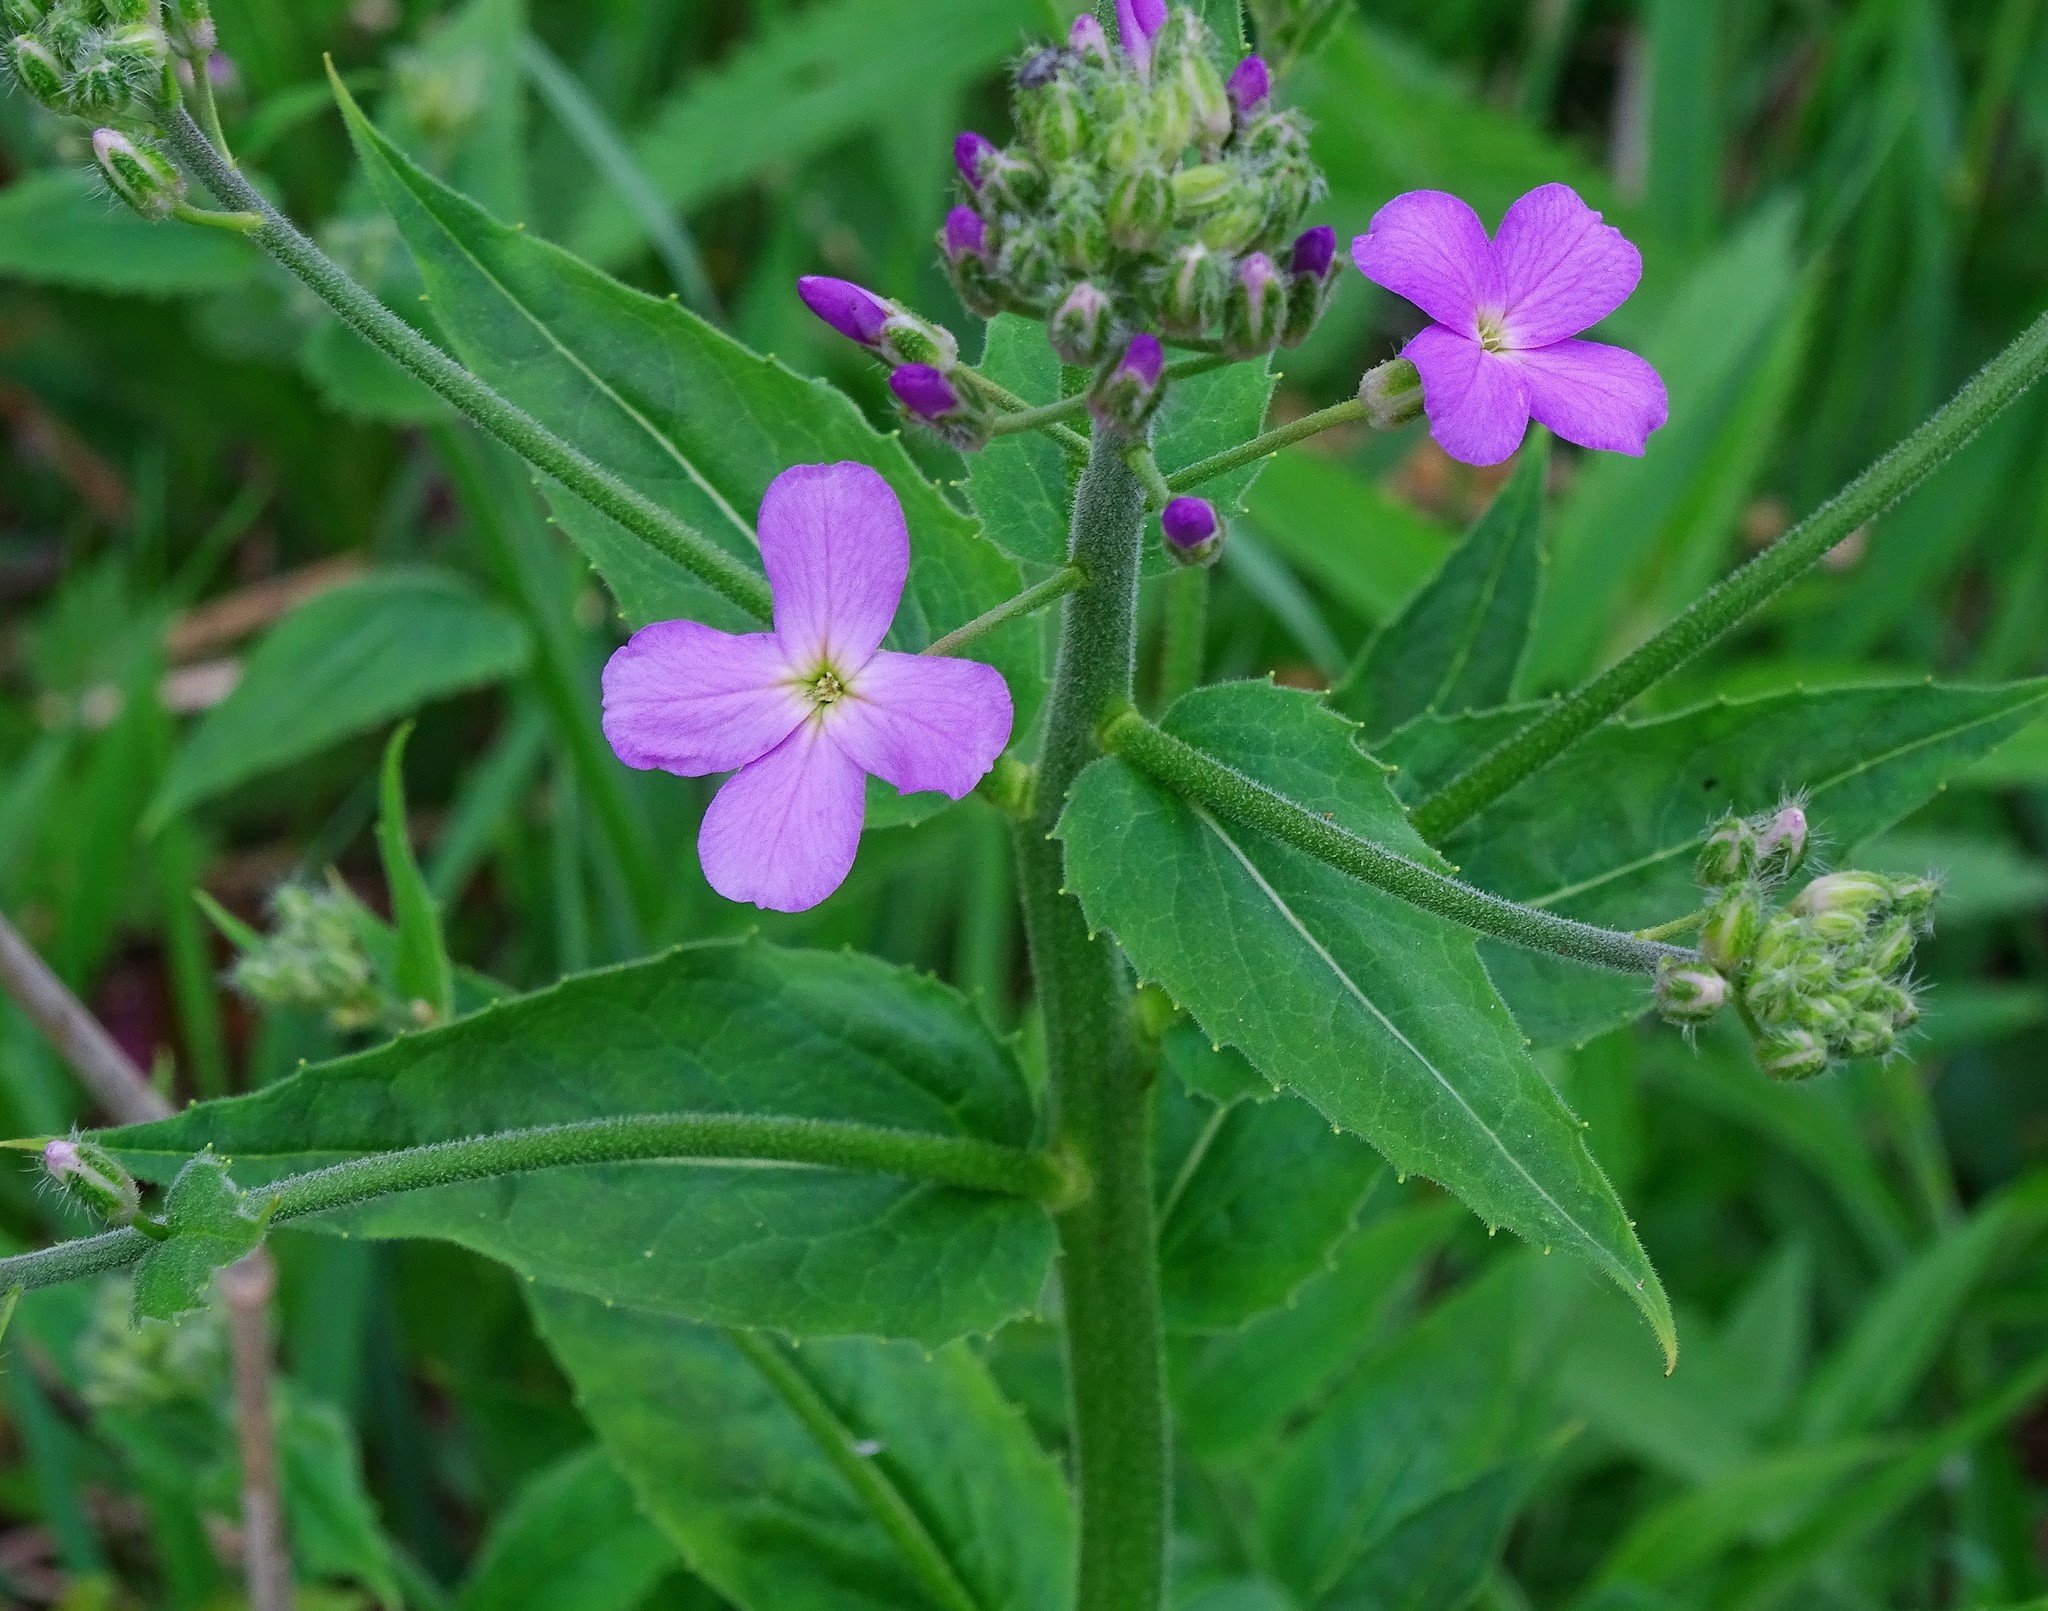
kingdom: Plantae
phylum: Tracheophyta
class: Magnoliopsida
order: Brassicales
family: Brassicaceae
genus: Hesperis
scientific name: Hesperis matronalis
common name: Dame's-violet
